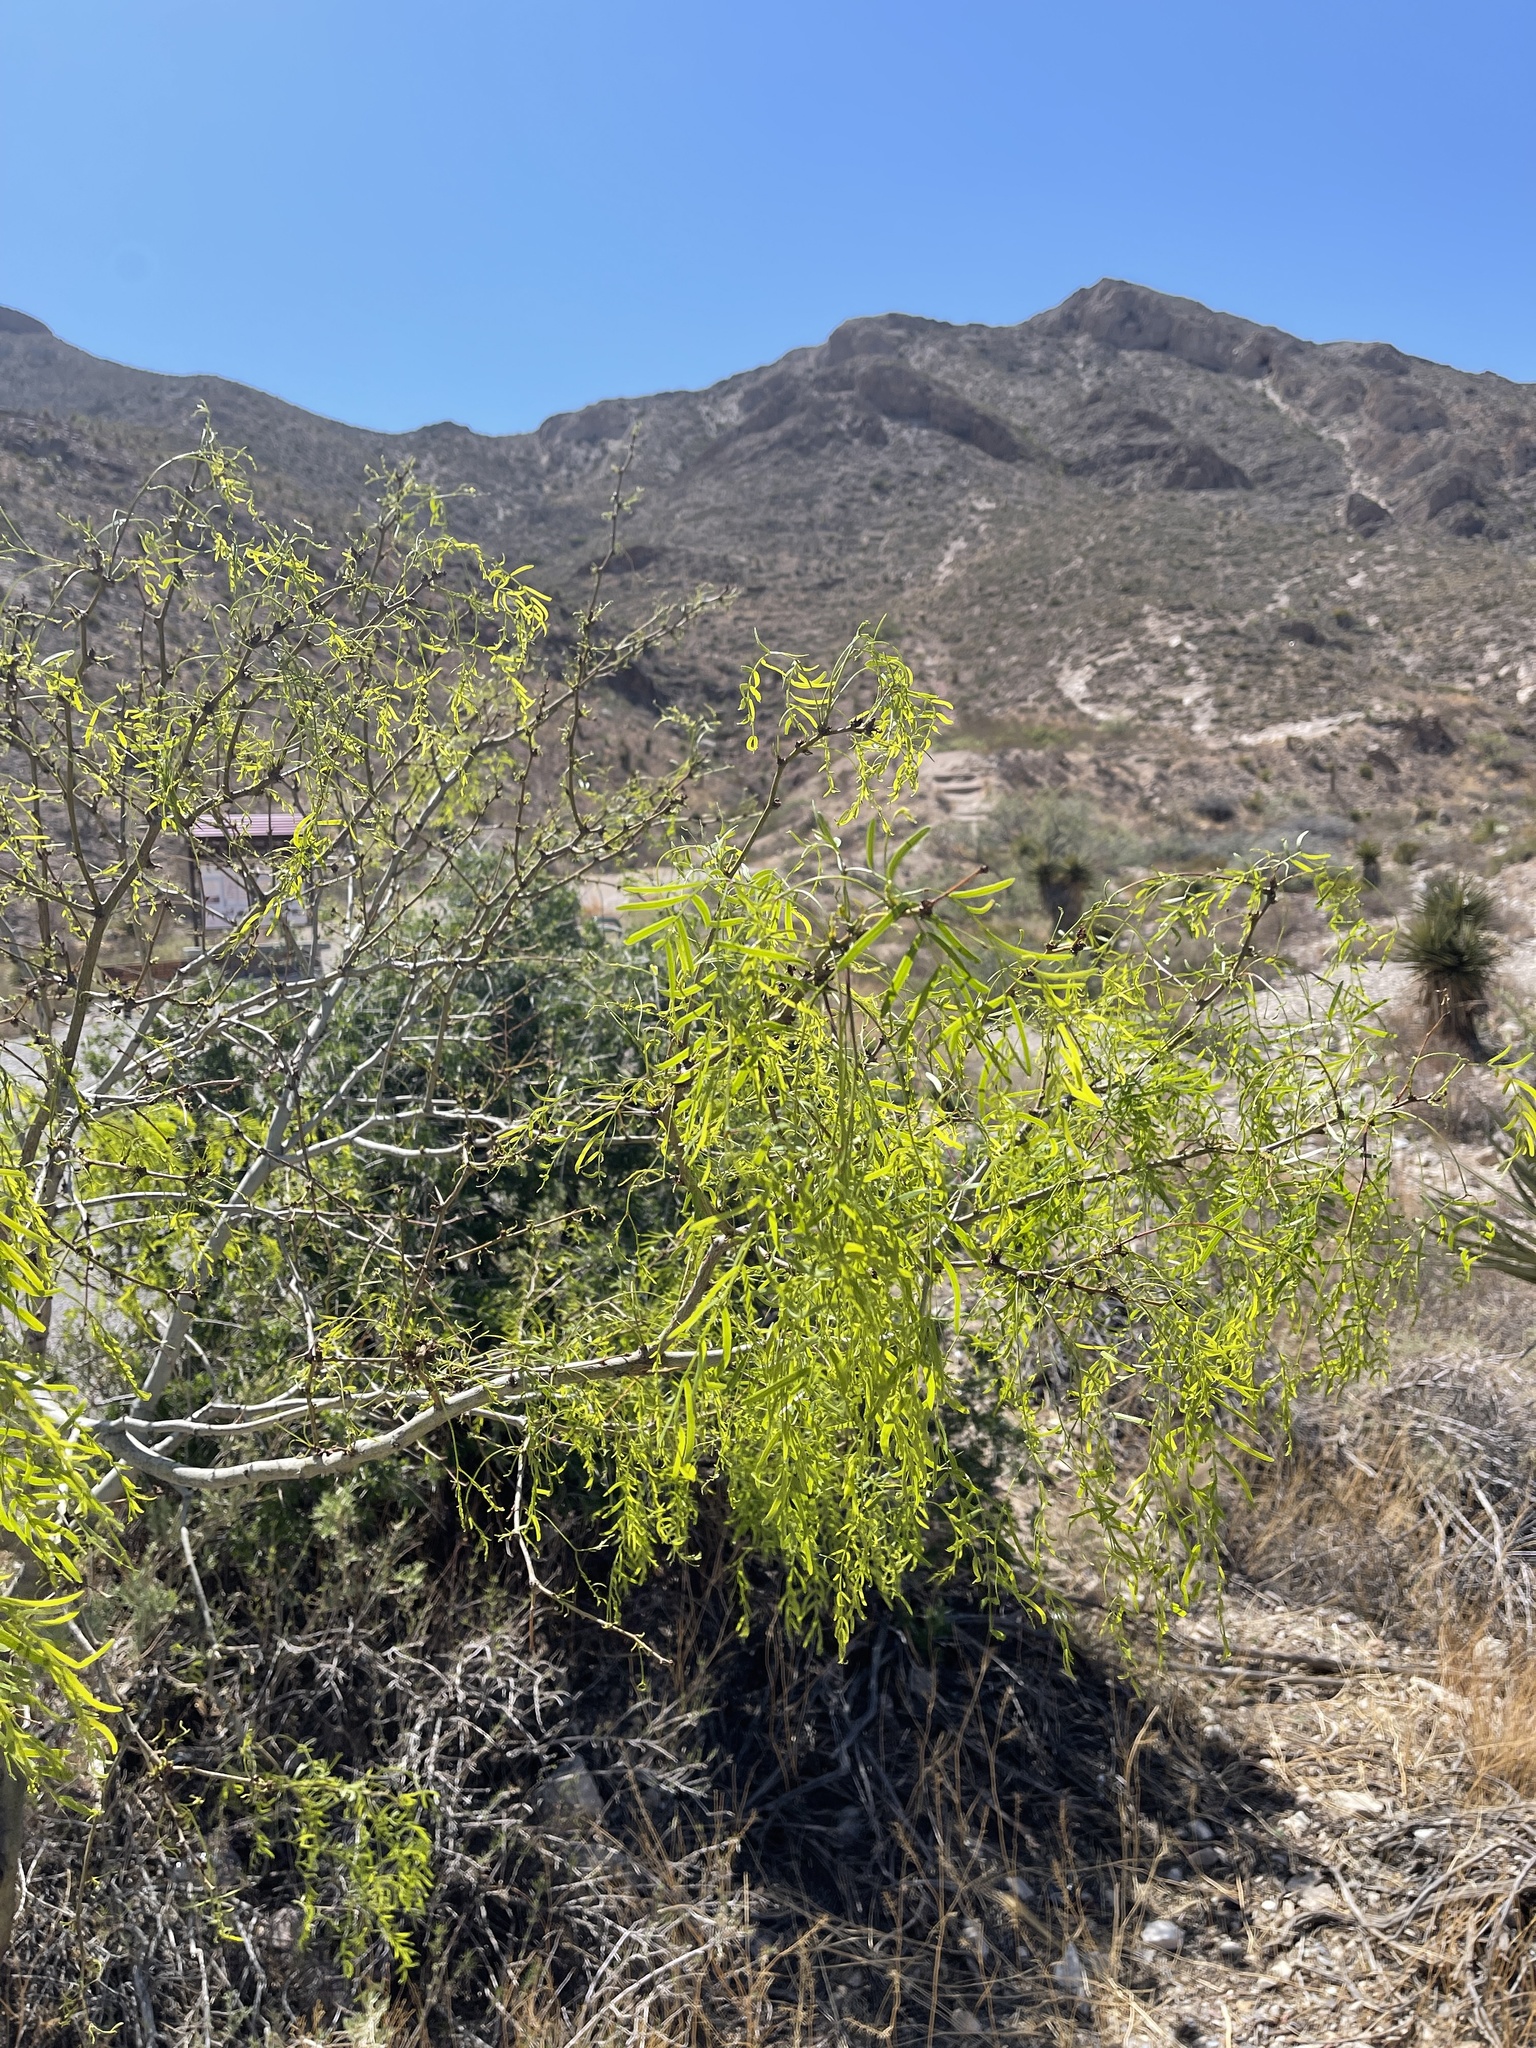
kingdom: Plantae
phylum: Tracheophyta
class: Magnoliopsida
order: Fabales
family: Fabaceae
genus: Prosopis
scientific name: Prosopis glandulosa
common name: Honey mesquite
